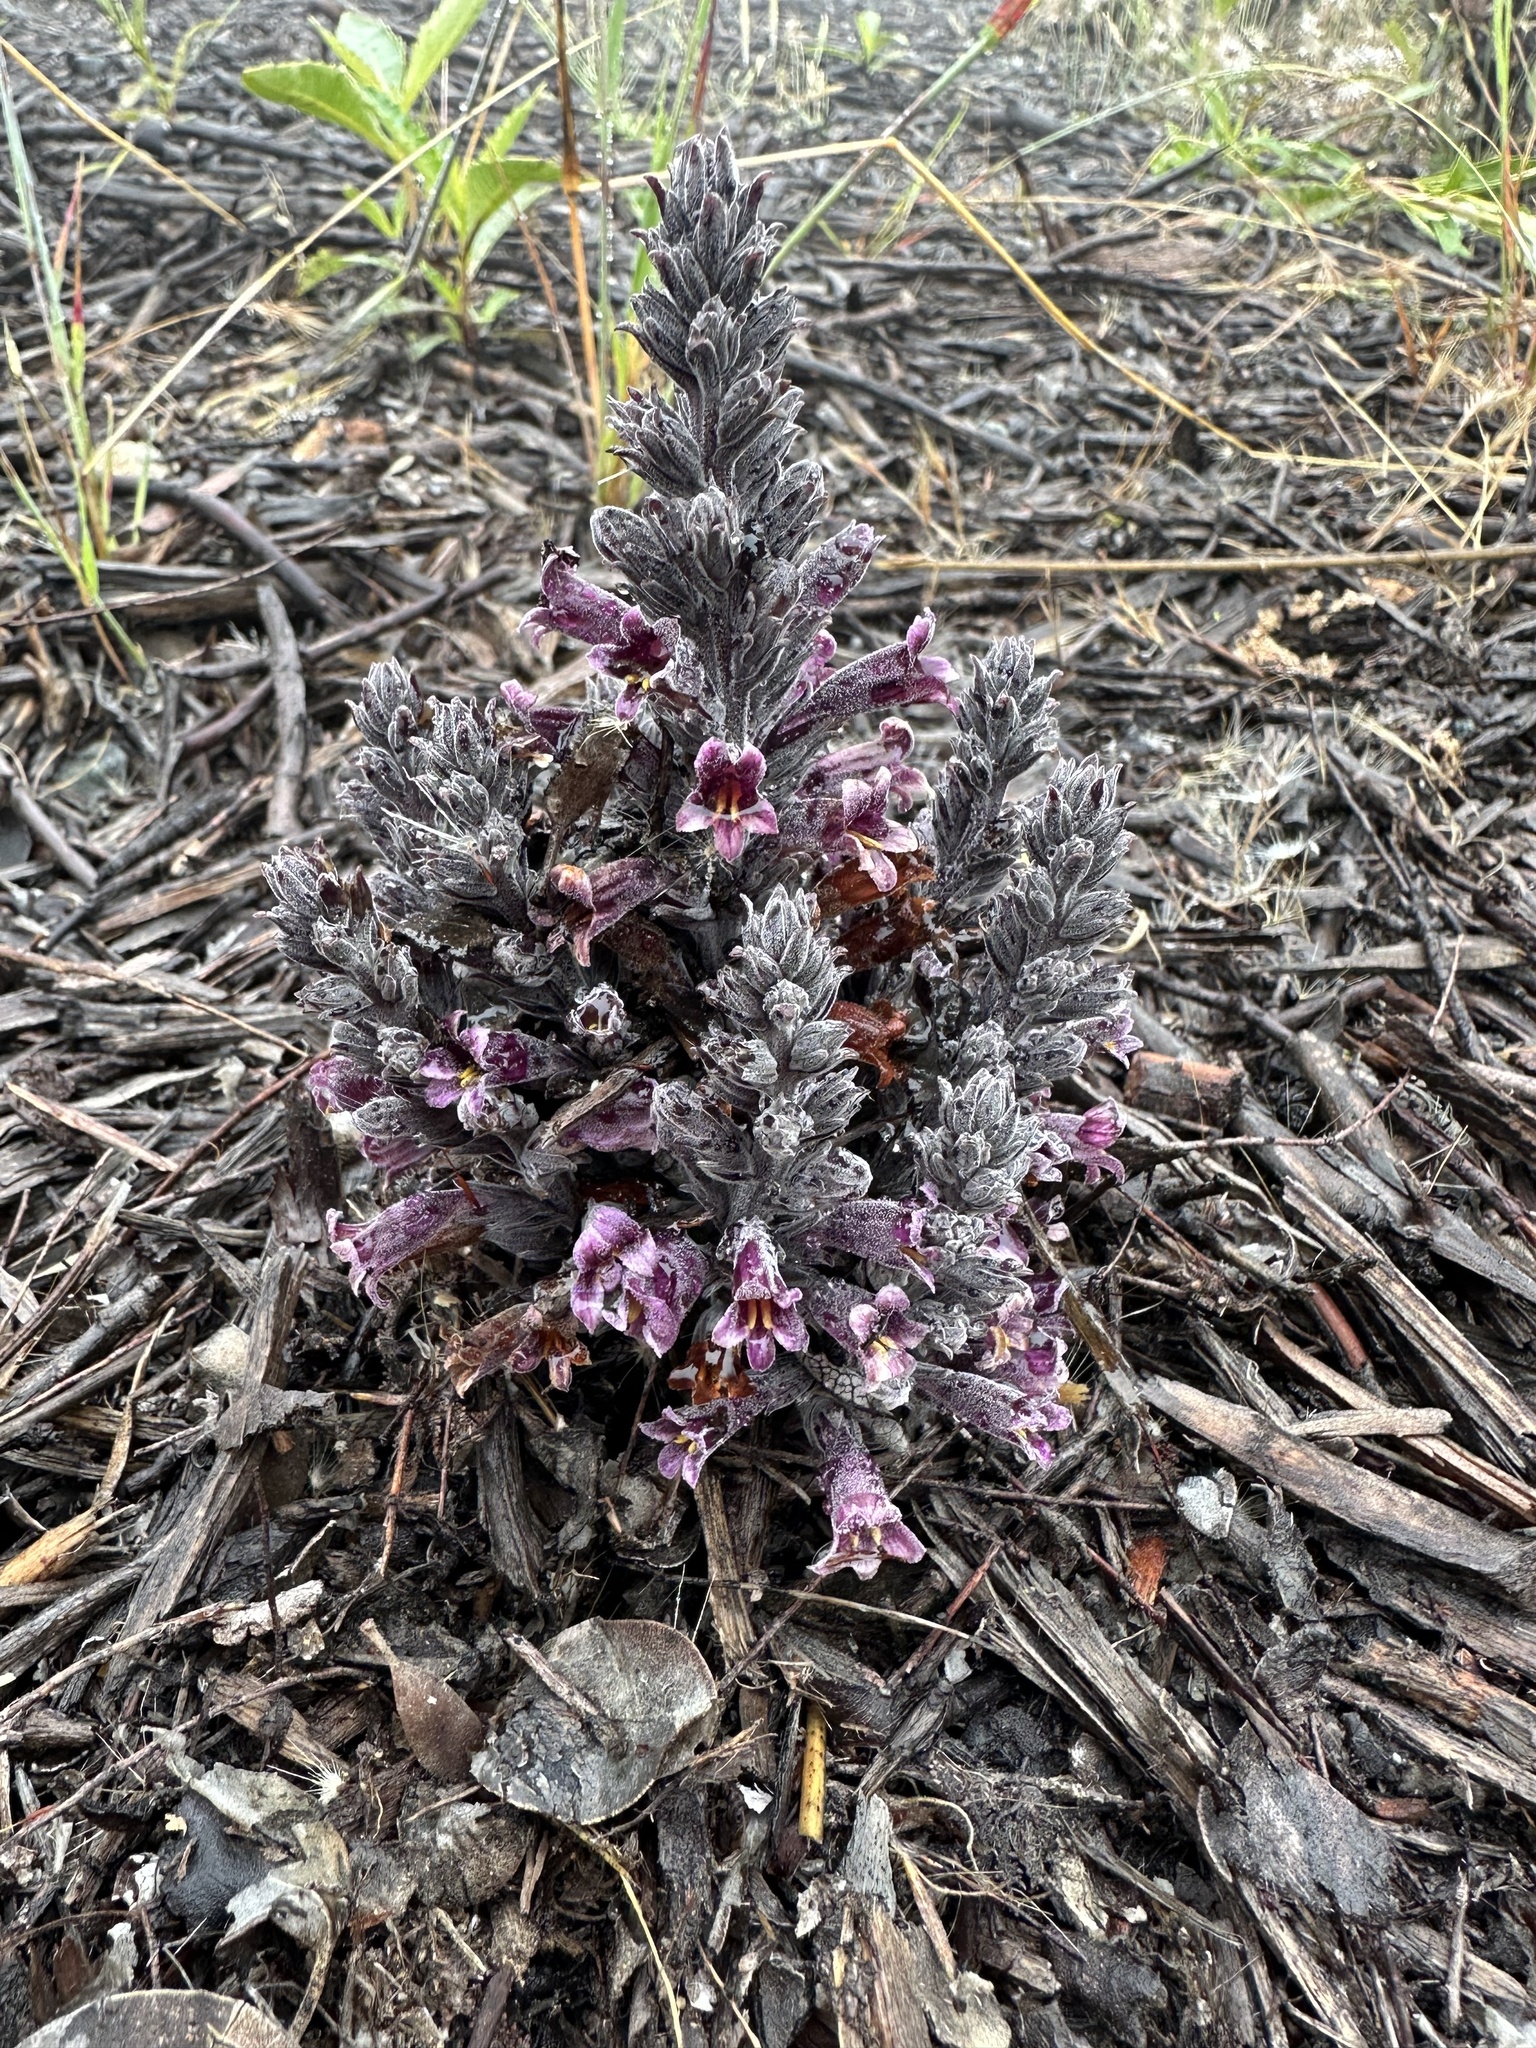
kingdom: Plantae
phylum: Tracheophyta
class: Magnoliopsida
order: Lamiales
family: Orobanchaceae
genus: Aphyllon
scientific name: Aphyllon tuberosum
